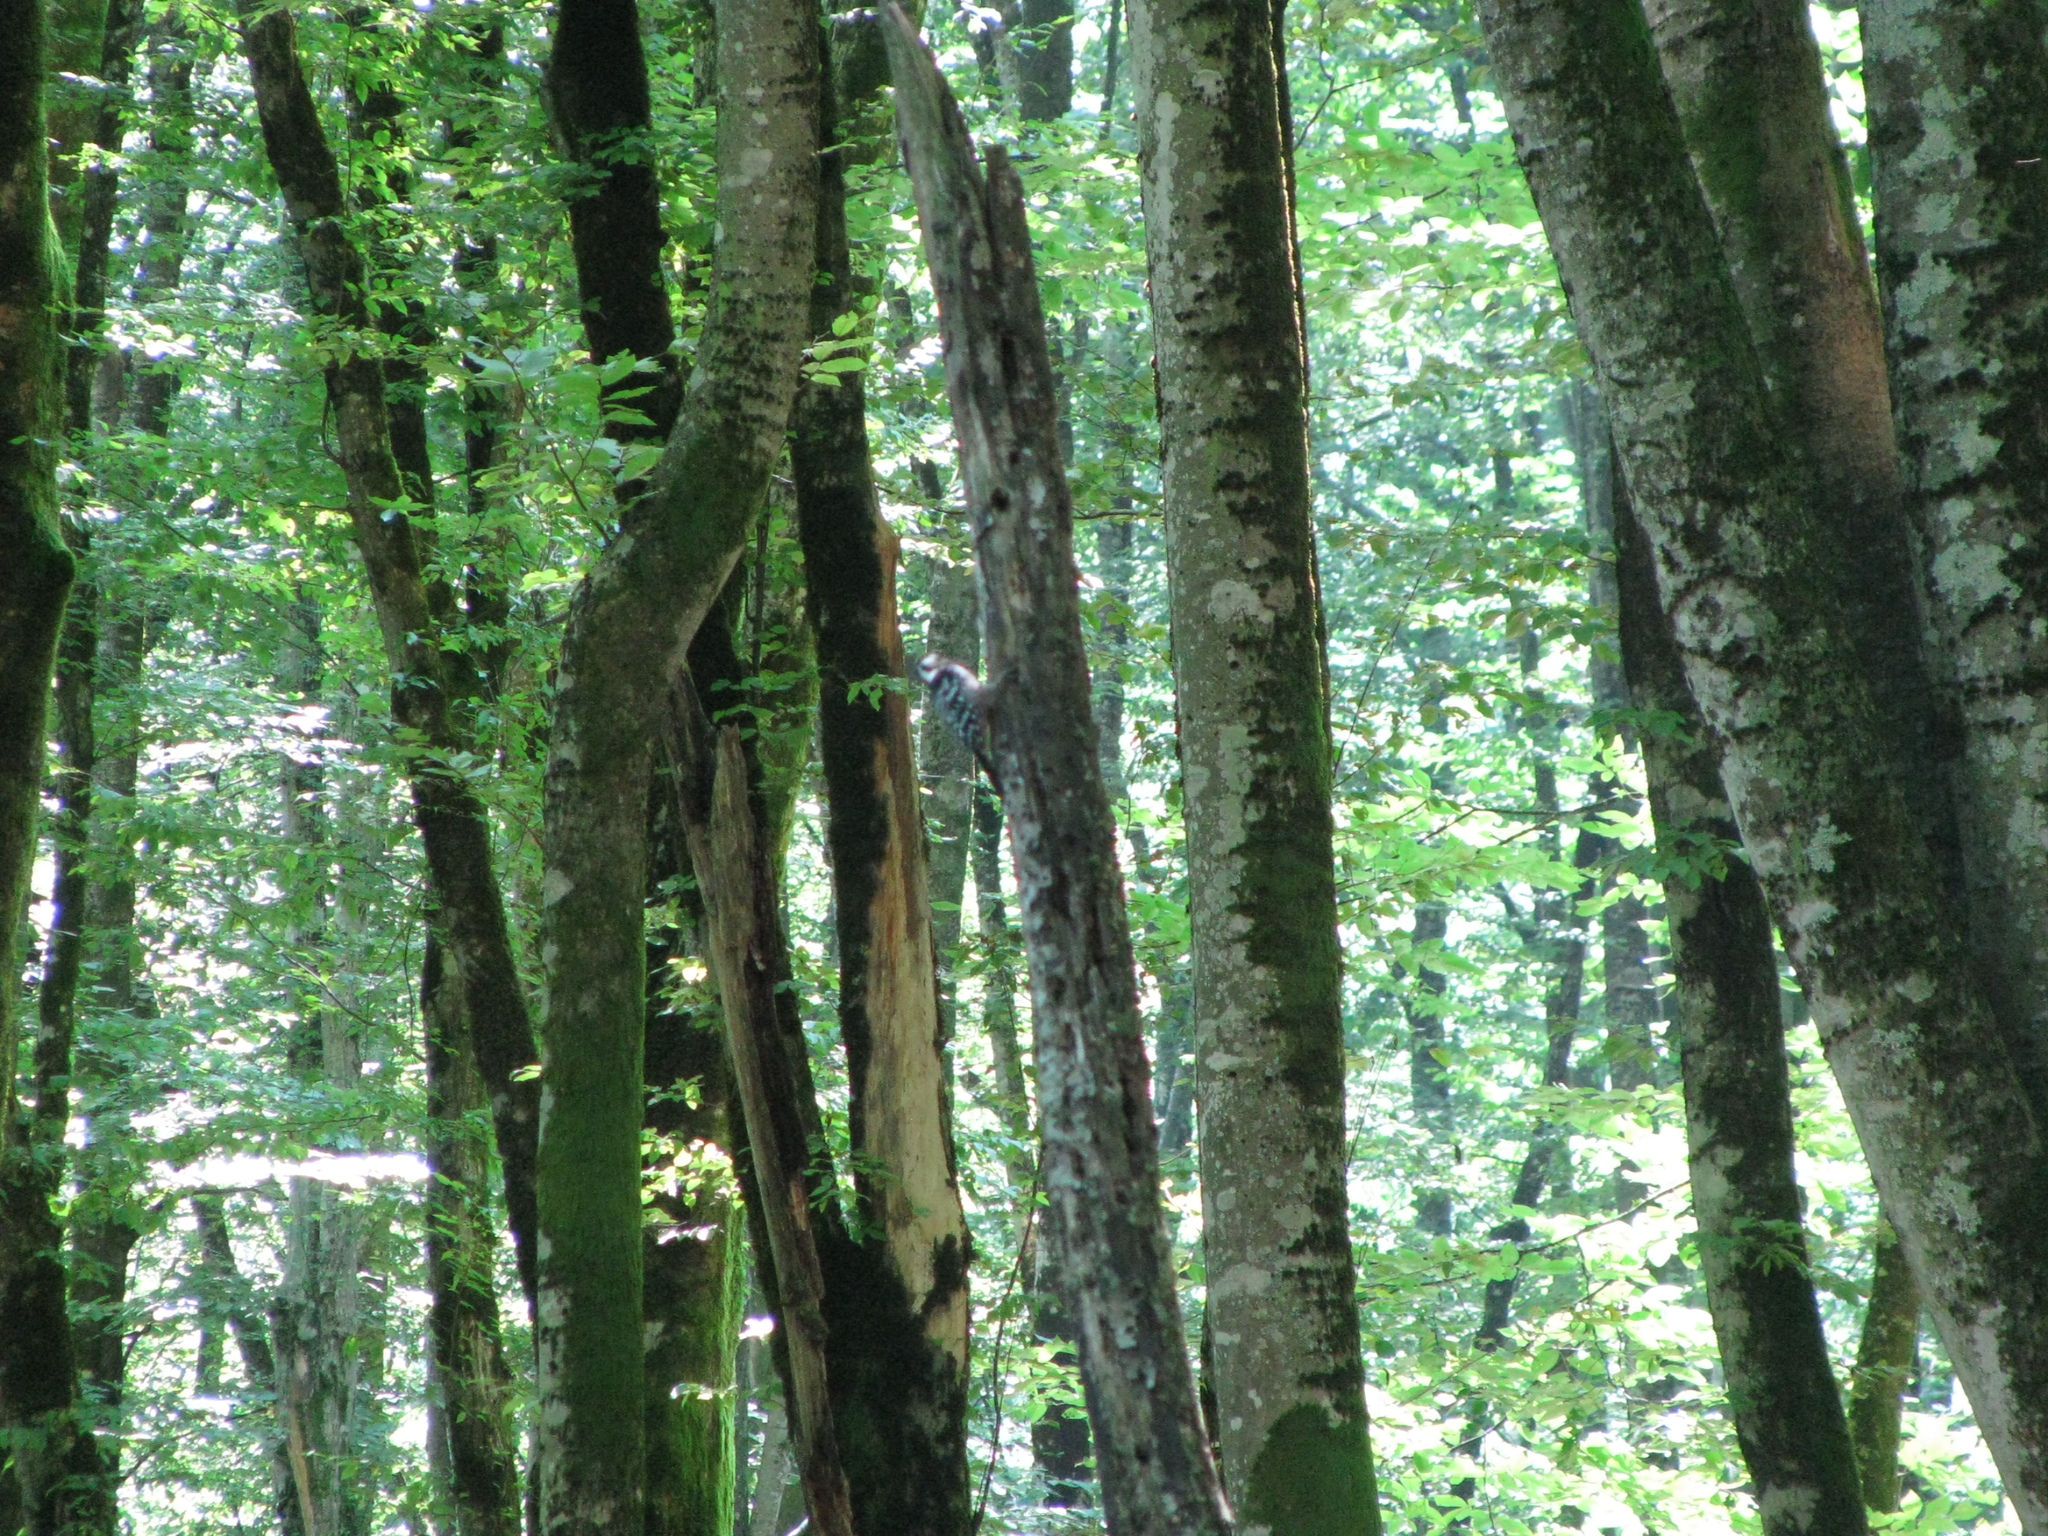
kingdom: Animalia
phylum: Chordata
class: Aves
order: Piciformes
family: Picidae
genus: Dendrocopos
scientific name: Dendrocopos leucotos
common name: White-backed woodpecker
